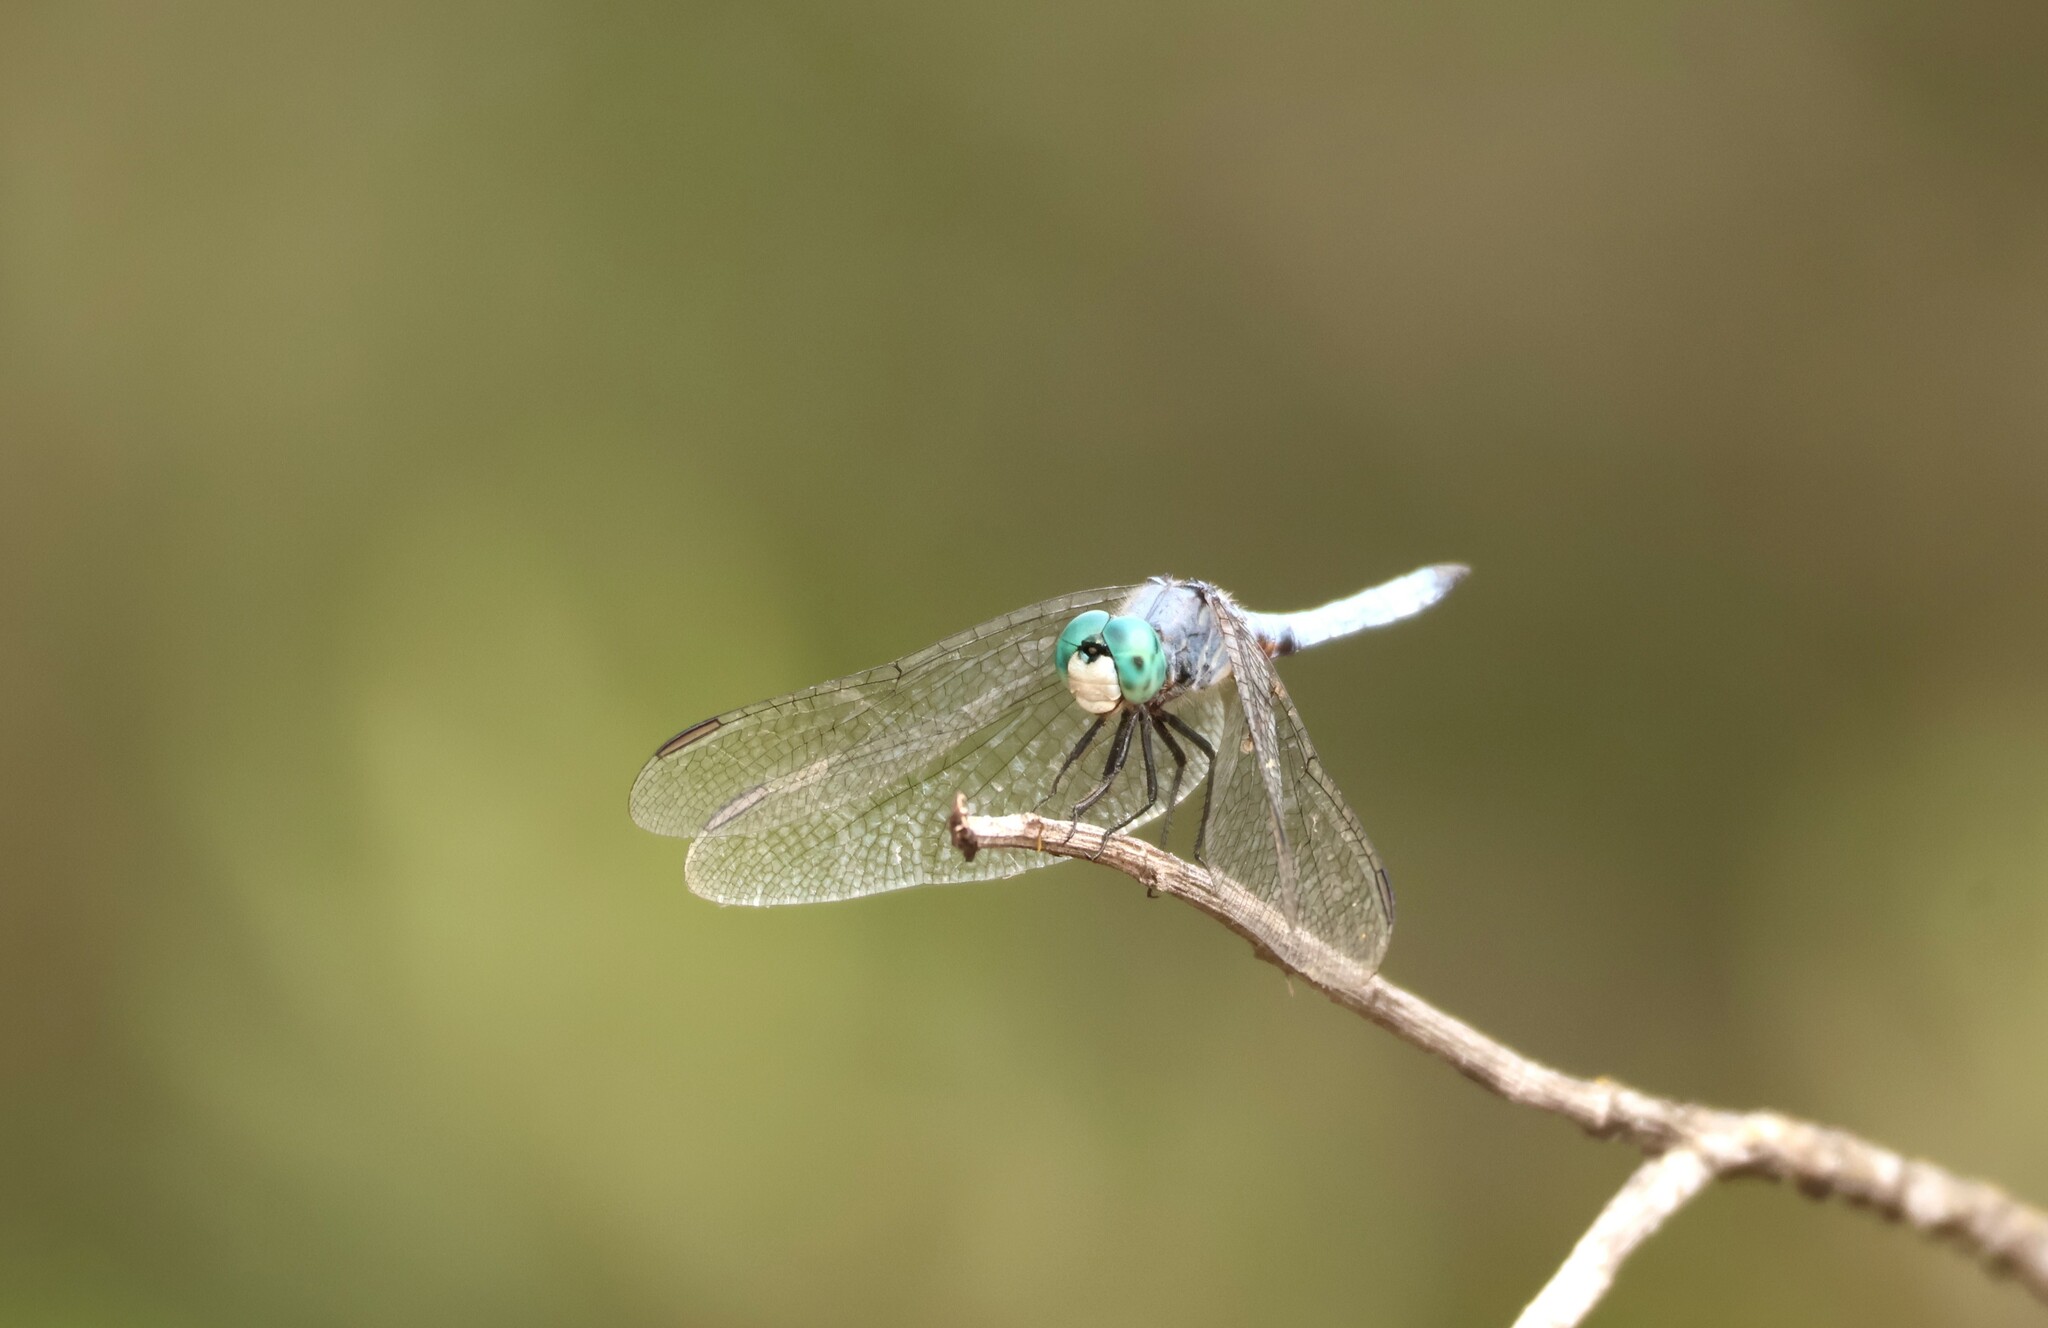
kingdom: Animalia
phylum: Arthropoda
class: Insecta
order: Odonata
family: Libellulidae
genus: Pachydiplax
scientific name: Pachydiplax longipennis
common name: Blue dasher
